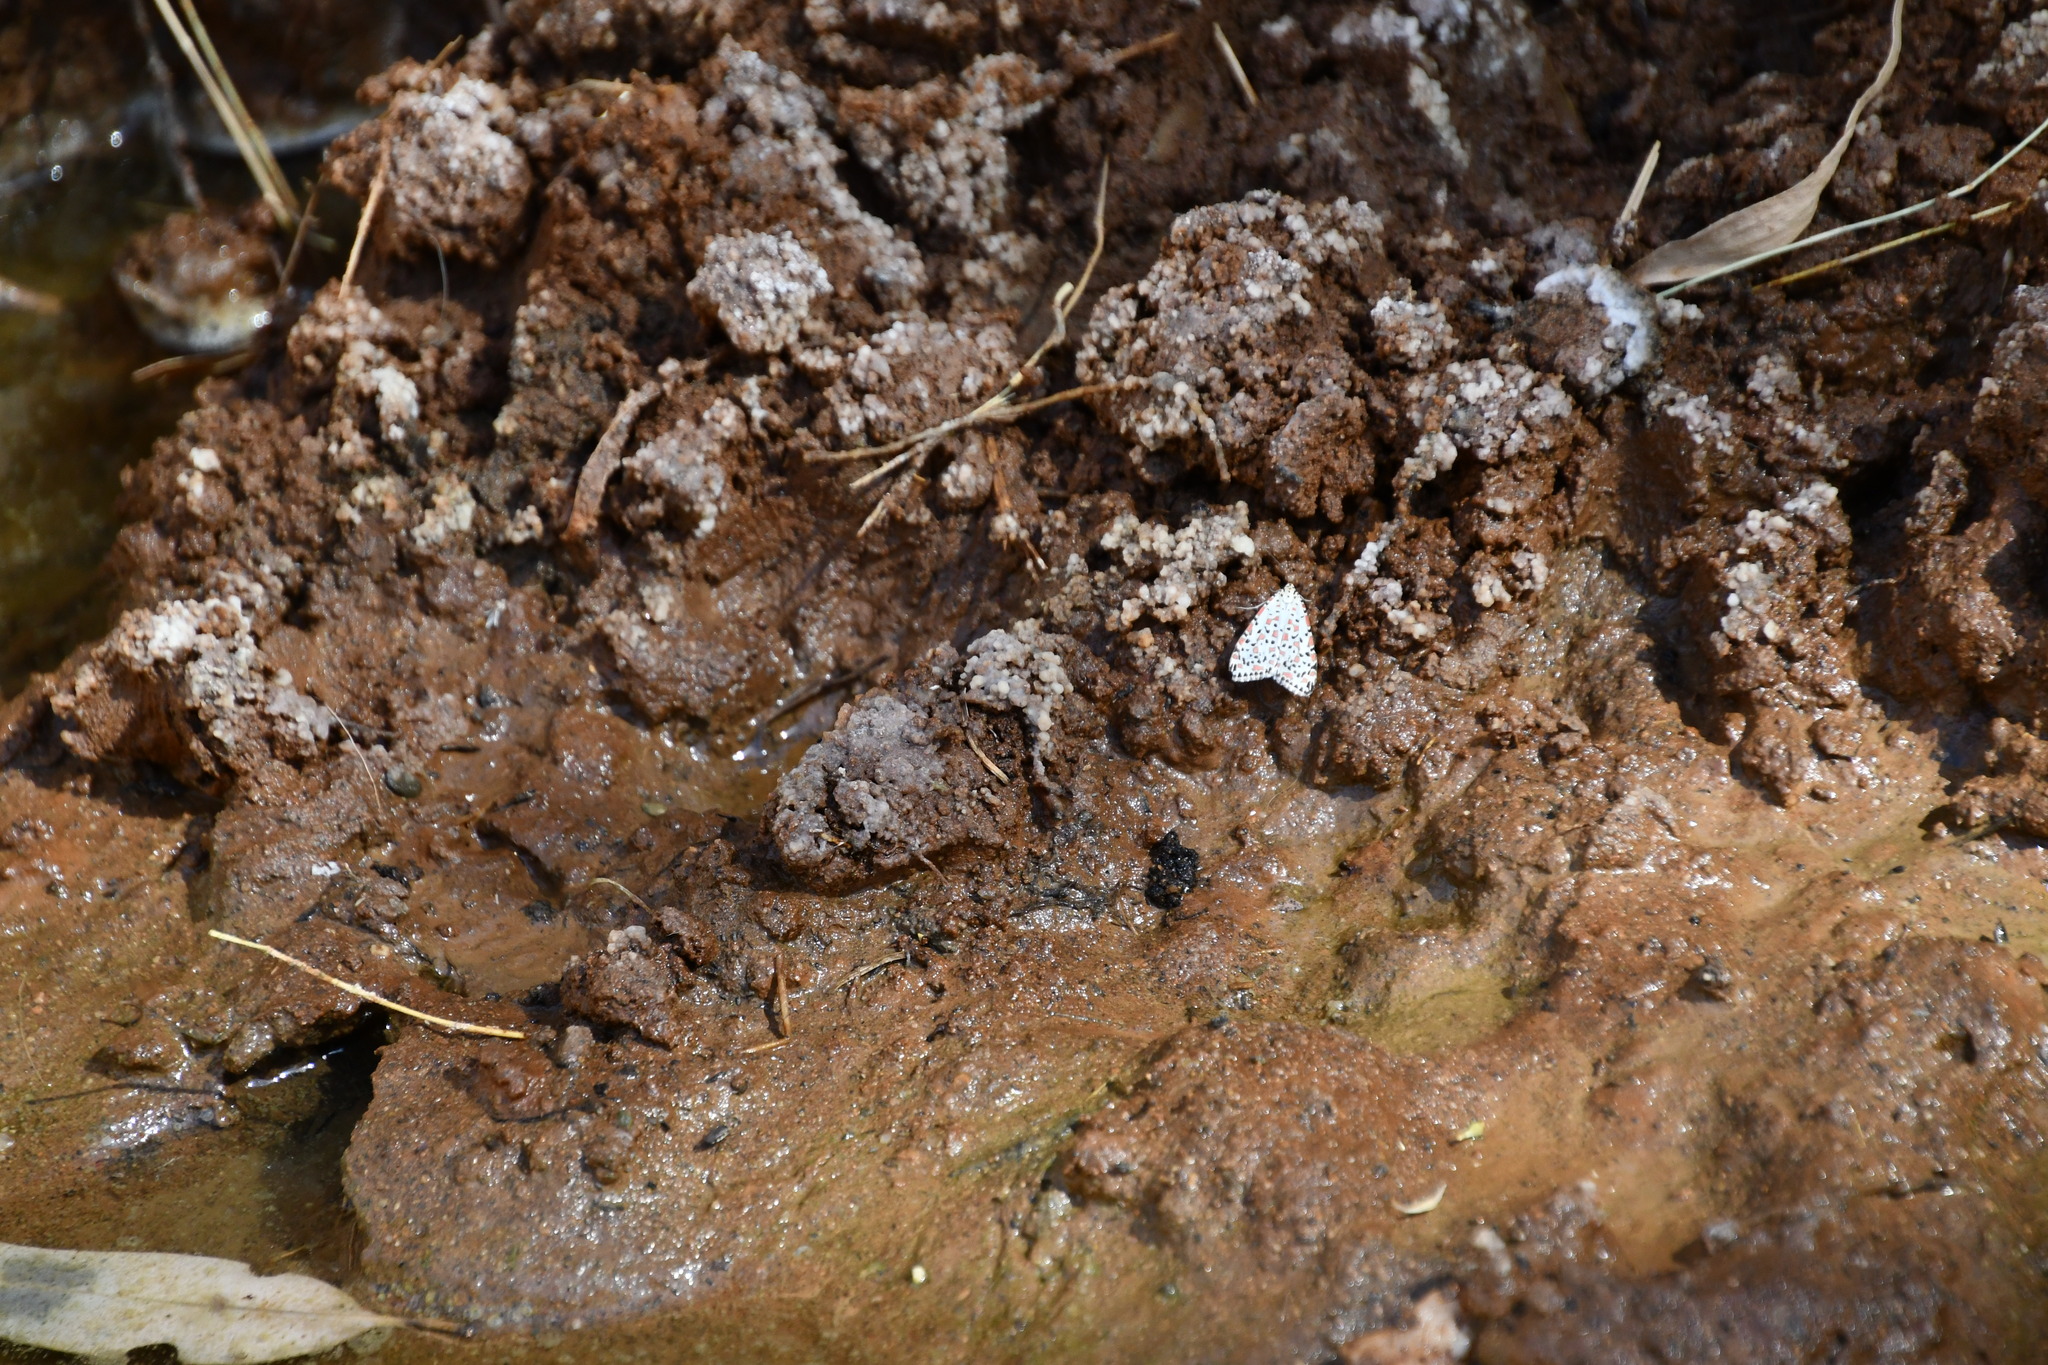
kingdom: Animalia
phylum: Arthropoda
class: Insecta
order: Lepidoptera
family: Erebidae
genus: Utetheisa
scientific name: Utetheisa pulchelloides
